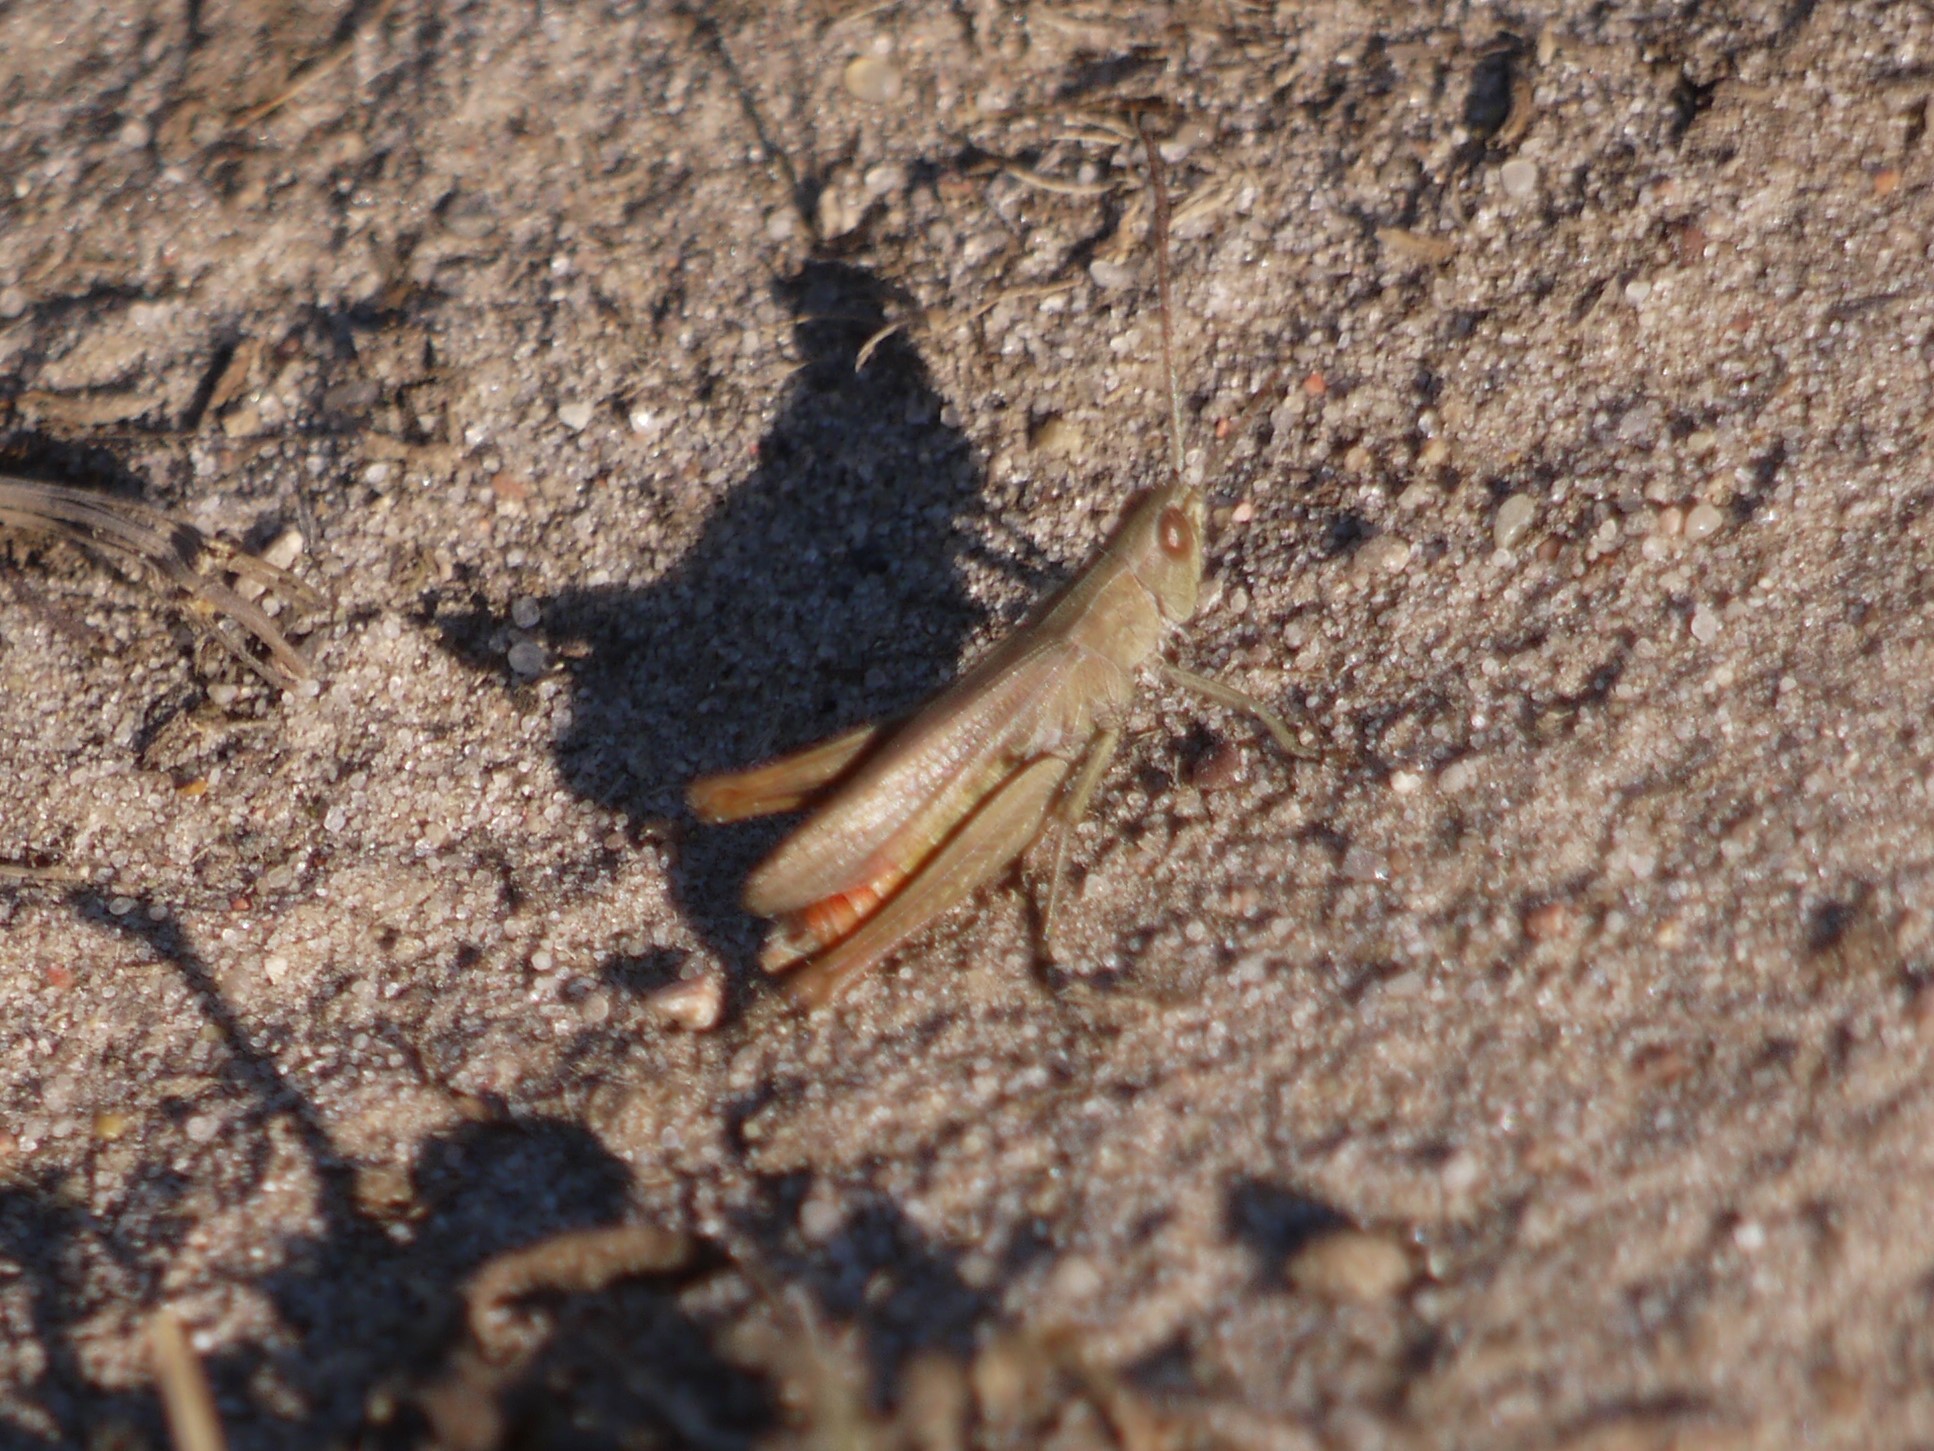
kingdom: Animalia
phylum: Arthropoda
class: Insecta
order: Orthoptera
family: Acrididae
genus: Chorthippus
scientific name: Chorthippus dorsatus
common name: Steppe grasshopper
